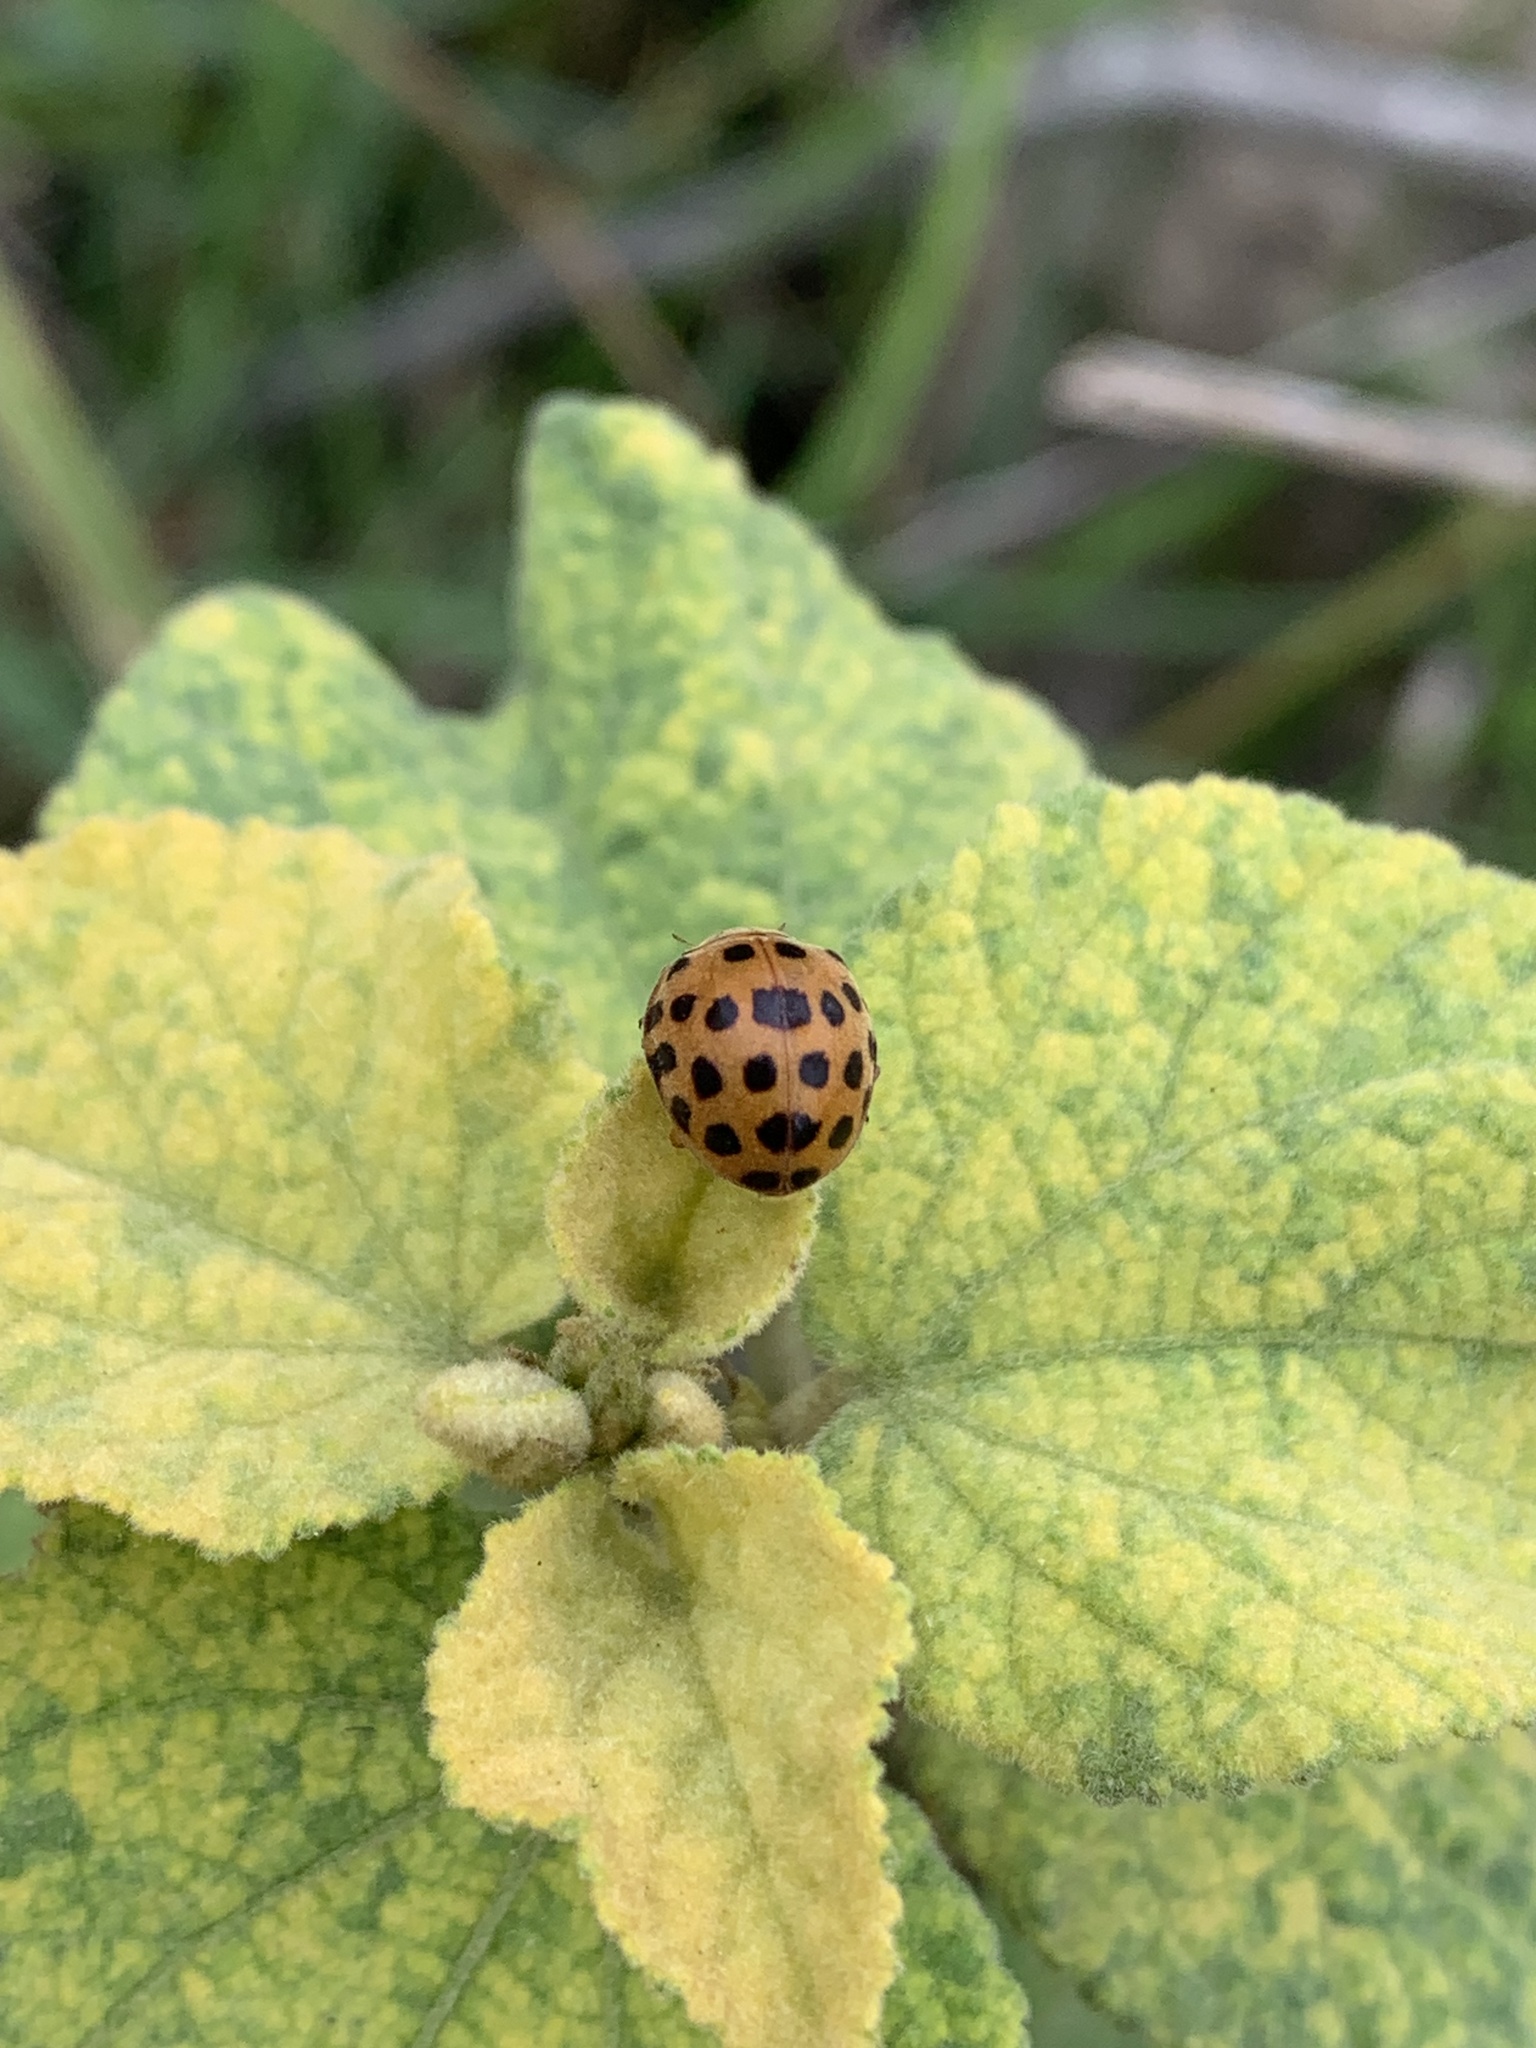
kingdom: Animalia
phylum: Arthropoda
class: Insecta
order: Coleoptera
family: Coccinellidae
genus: Henosepilachna
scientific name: Henosepilachna vigintioctopunctata
